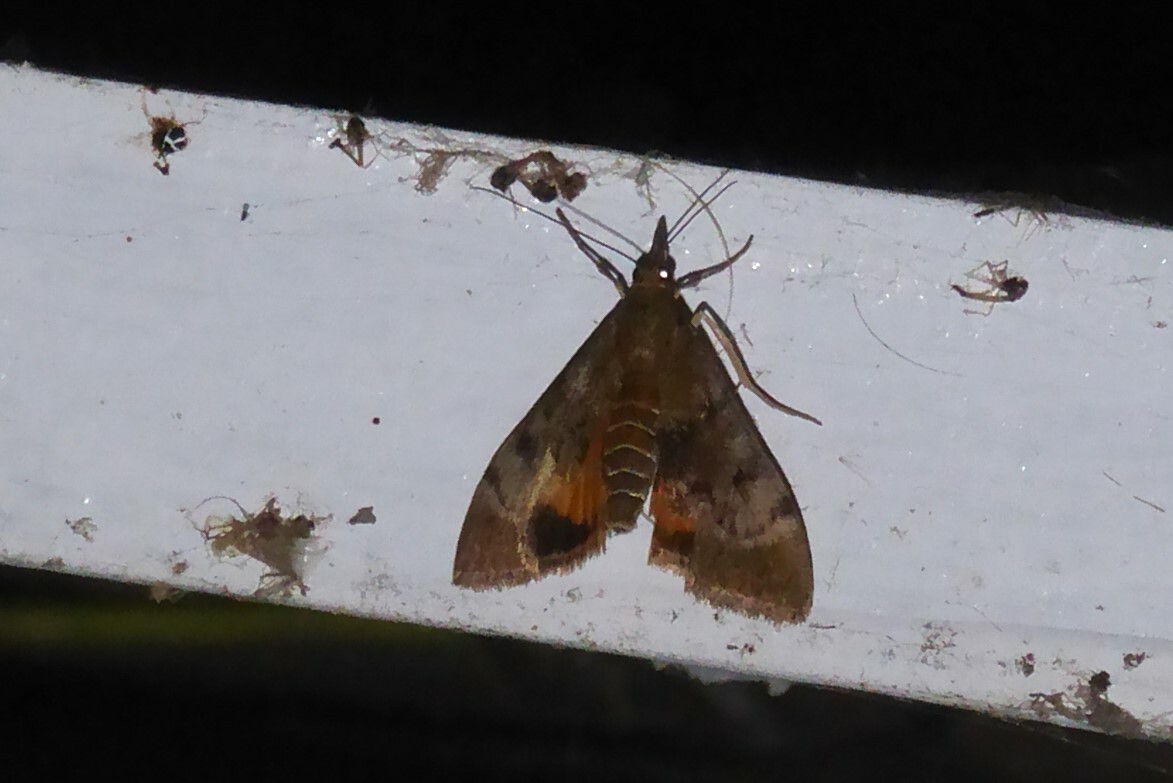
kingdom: Animalia
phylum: Arthropoda
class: Insecta
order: Lepidoptera
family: Crambidae
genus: Uresiphita
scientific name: Uresiphita
